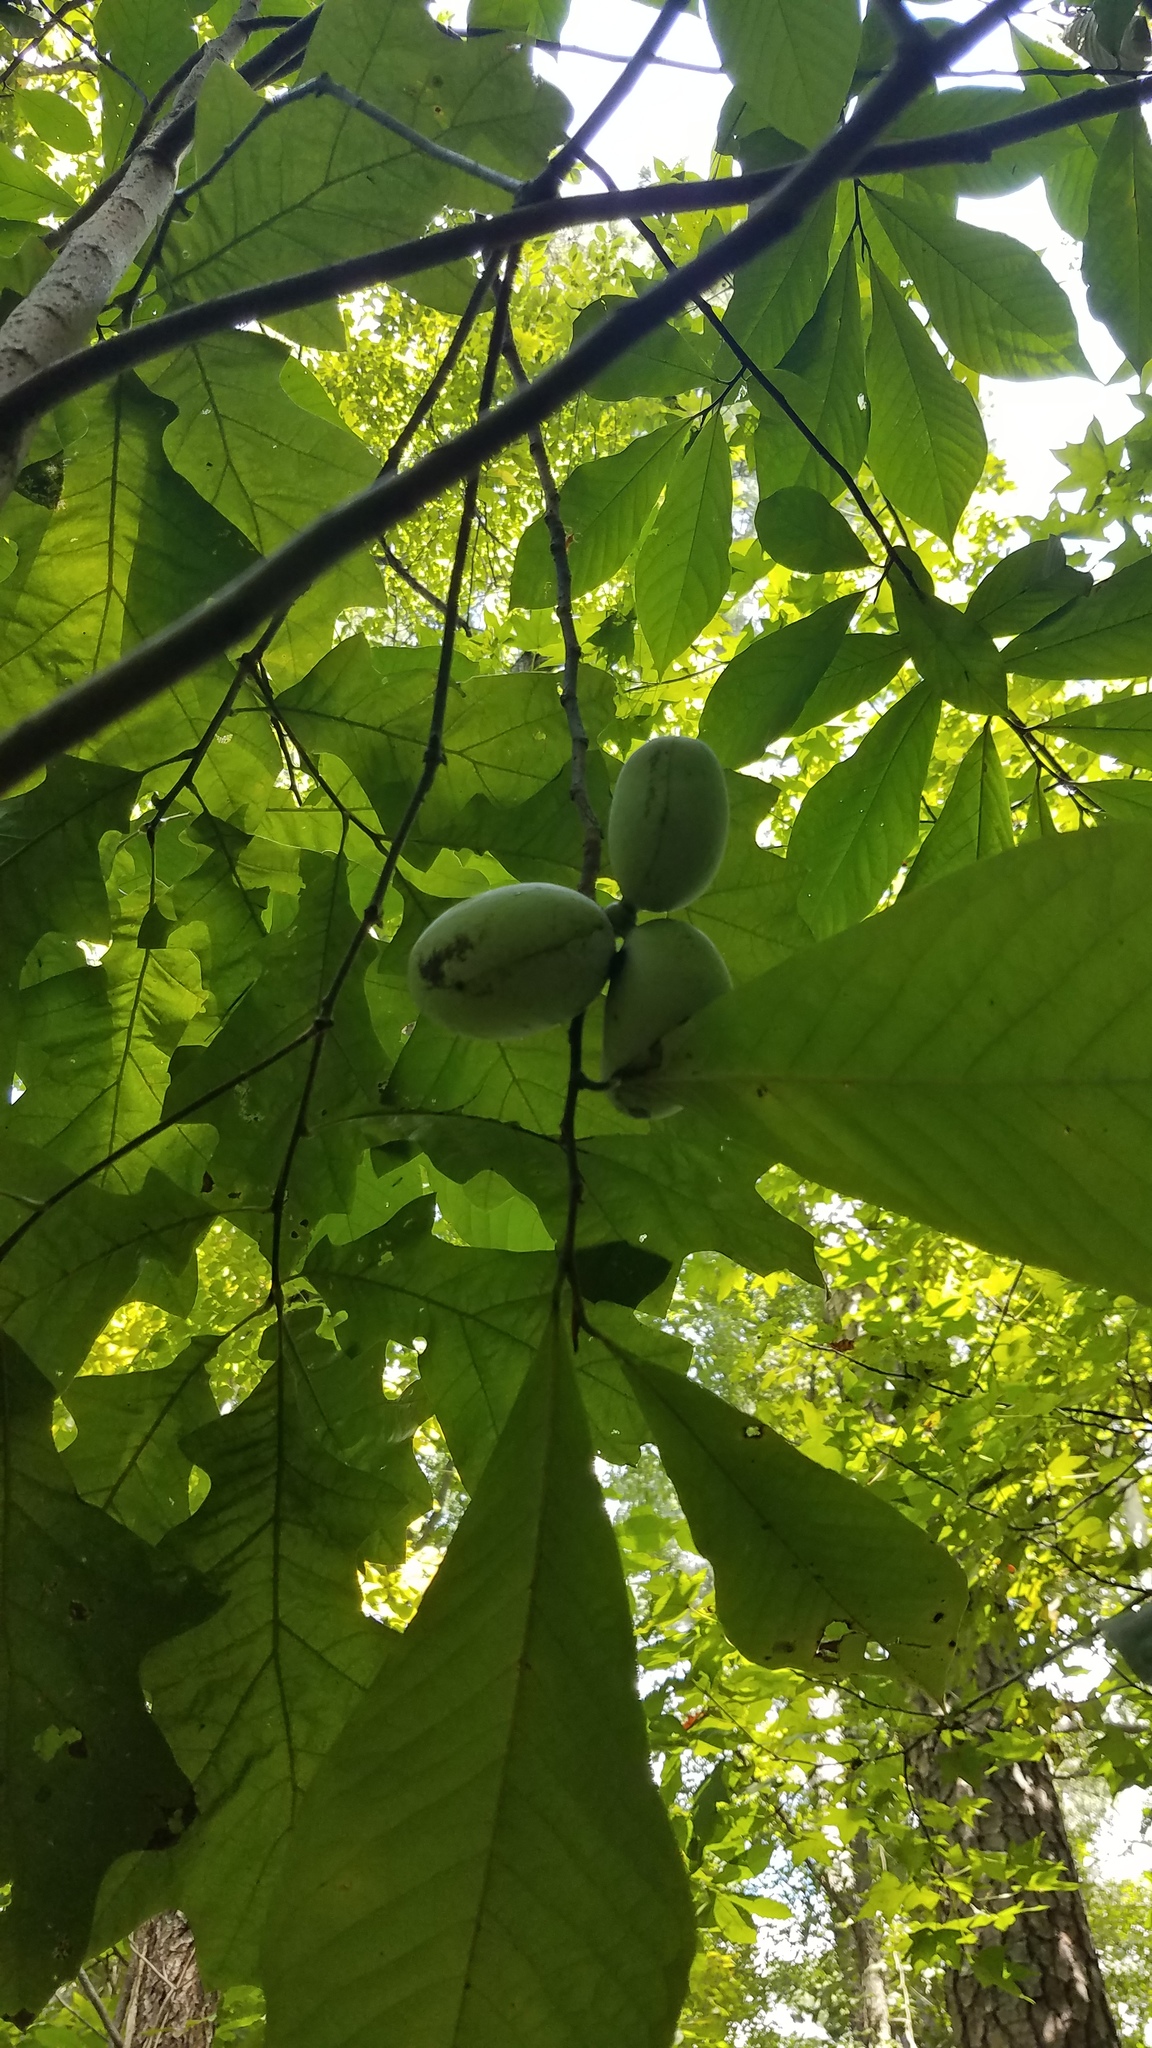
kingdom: Plantae
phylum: Tracheophyta
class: Magnoliopsida
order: Magnoliales
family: Annonaceae
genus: Asimina
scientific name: Asimina triloba
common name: Dog-banana
